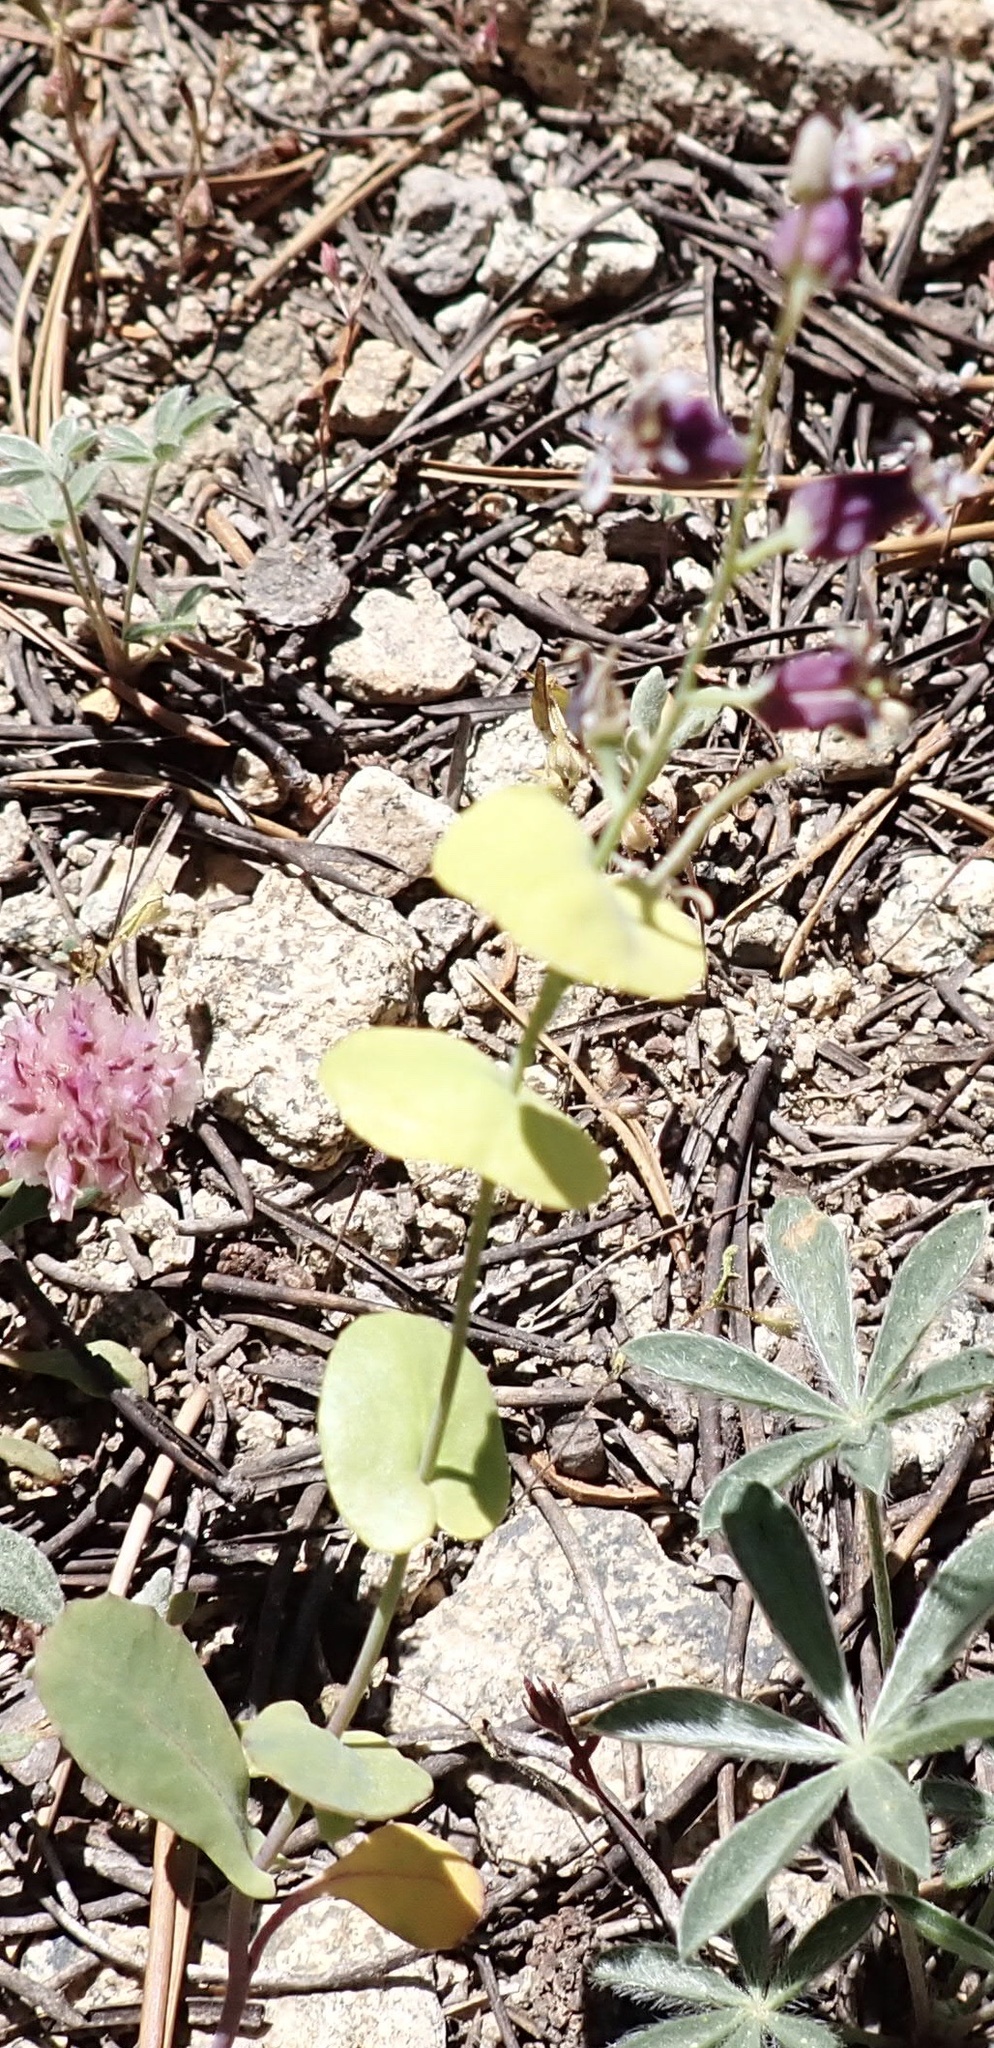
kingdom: Plantae
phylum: Tracheophyta
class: Magnoliopsida
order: Brassicales
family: Brassicaceae
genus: Streptanthus
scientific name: Streptanthus tortuosus
